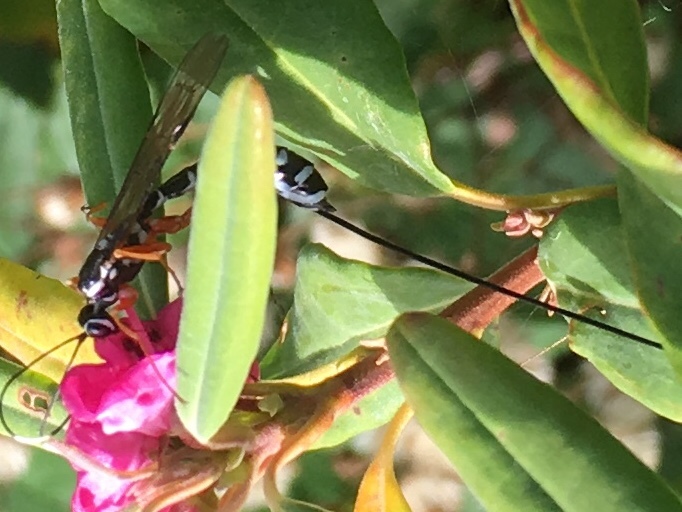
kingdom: Animalia
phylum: Arthropoda
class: Insecta
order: Hymenoptera
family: Ichneumonidae
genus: Rhyssa
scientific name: Rhyssa lineolata
